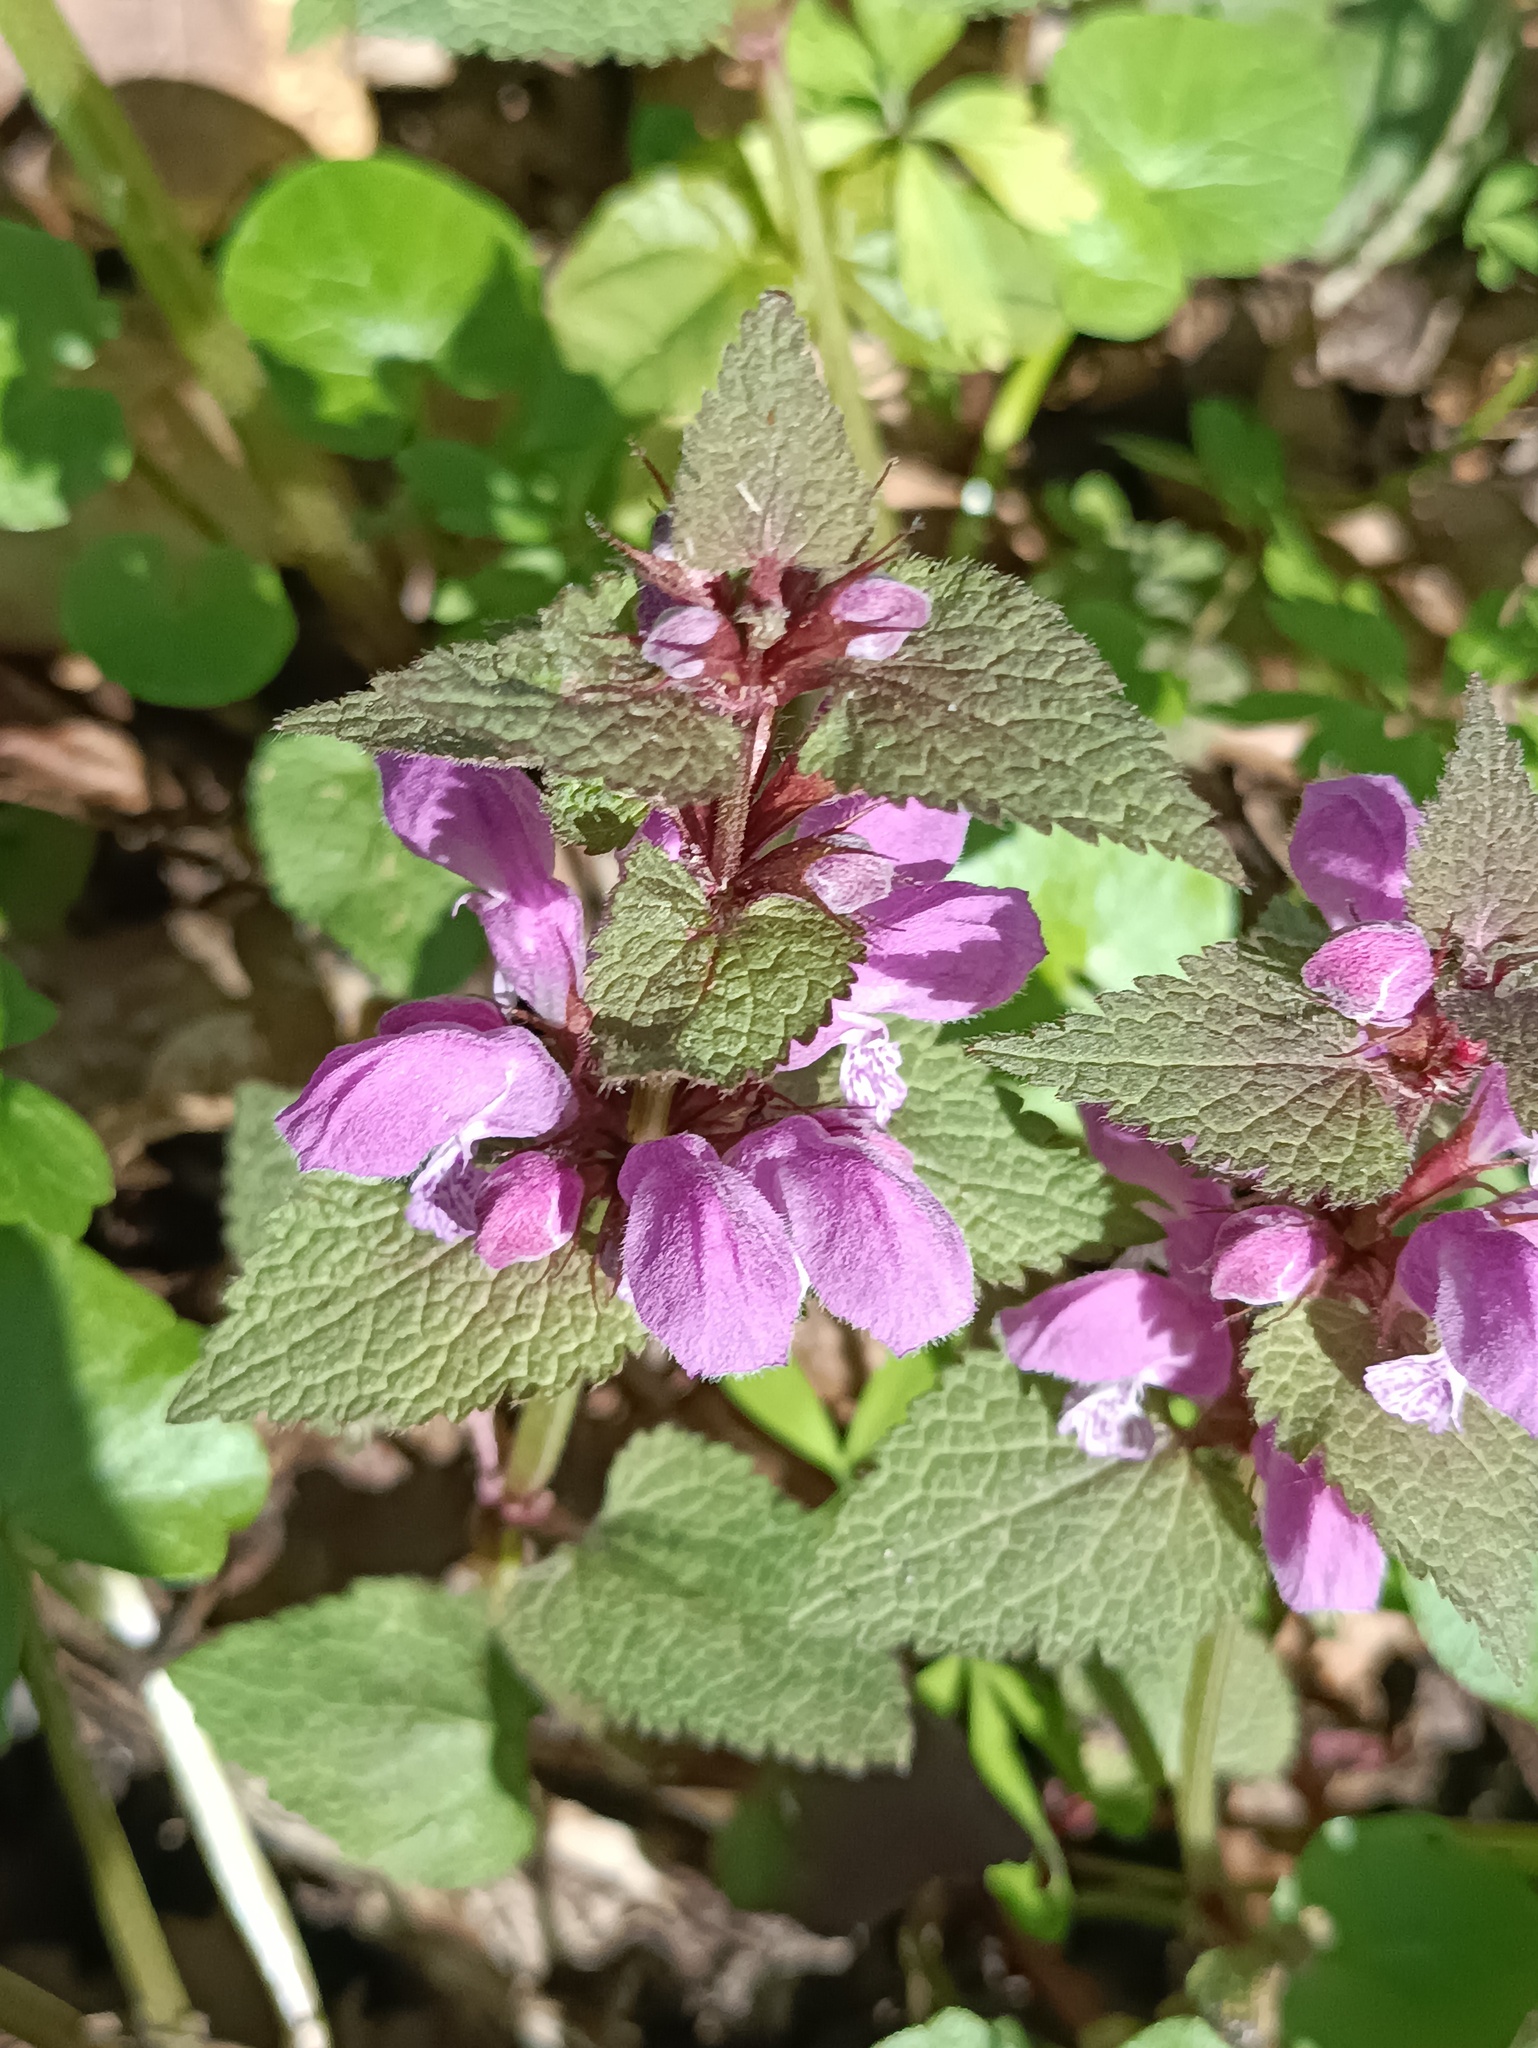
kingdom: Plantae
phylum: Tracheophyta
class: Magnoliopsida
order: Lamiales
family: Lamiaceae
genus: Lamium
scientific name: Lamium maculatum
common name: Spotted dead-nettle
